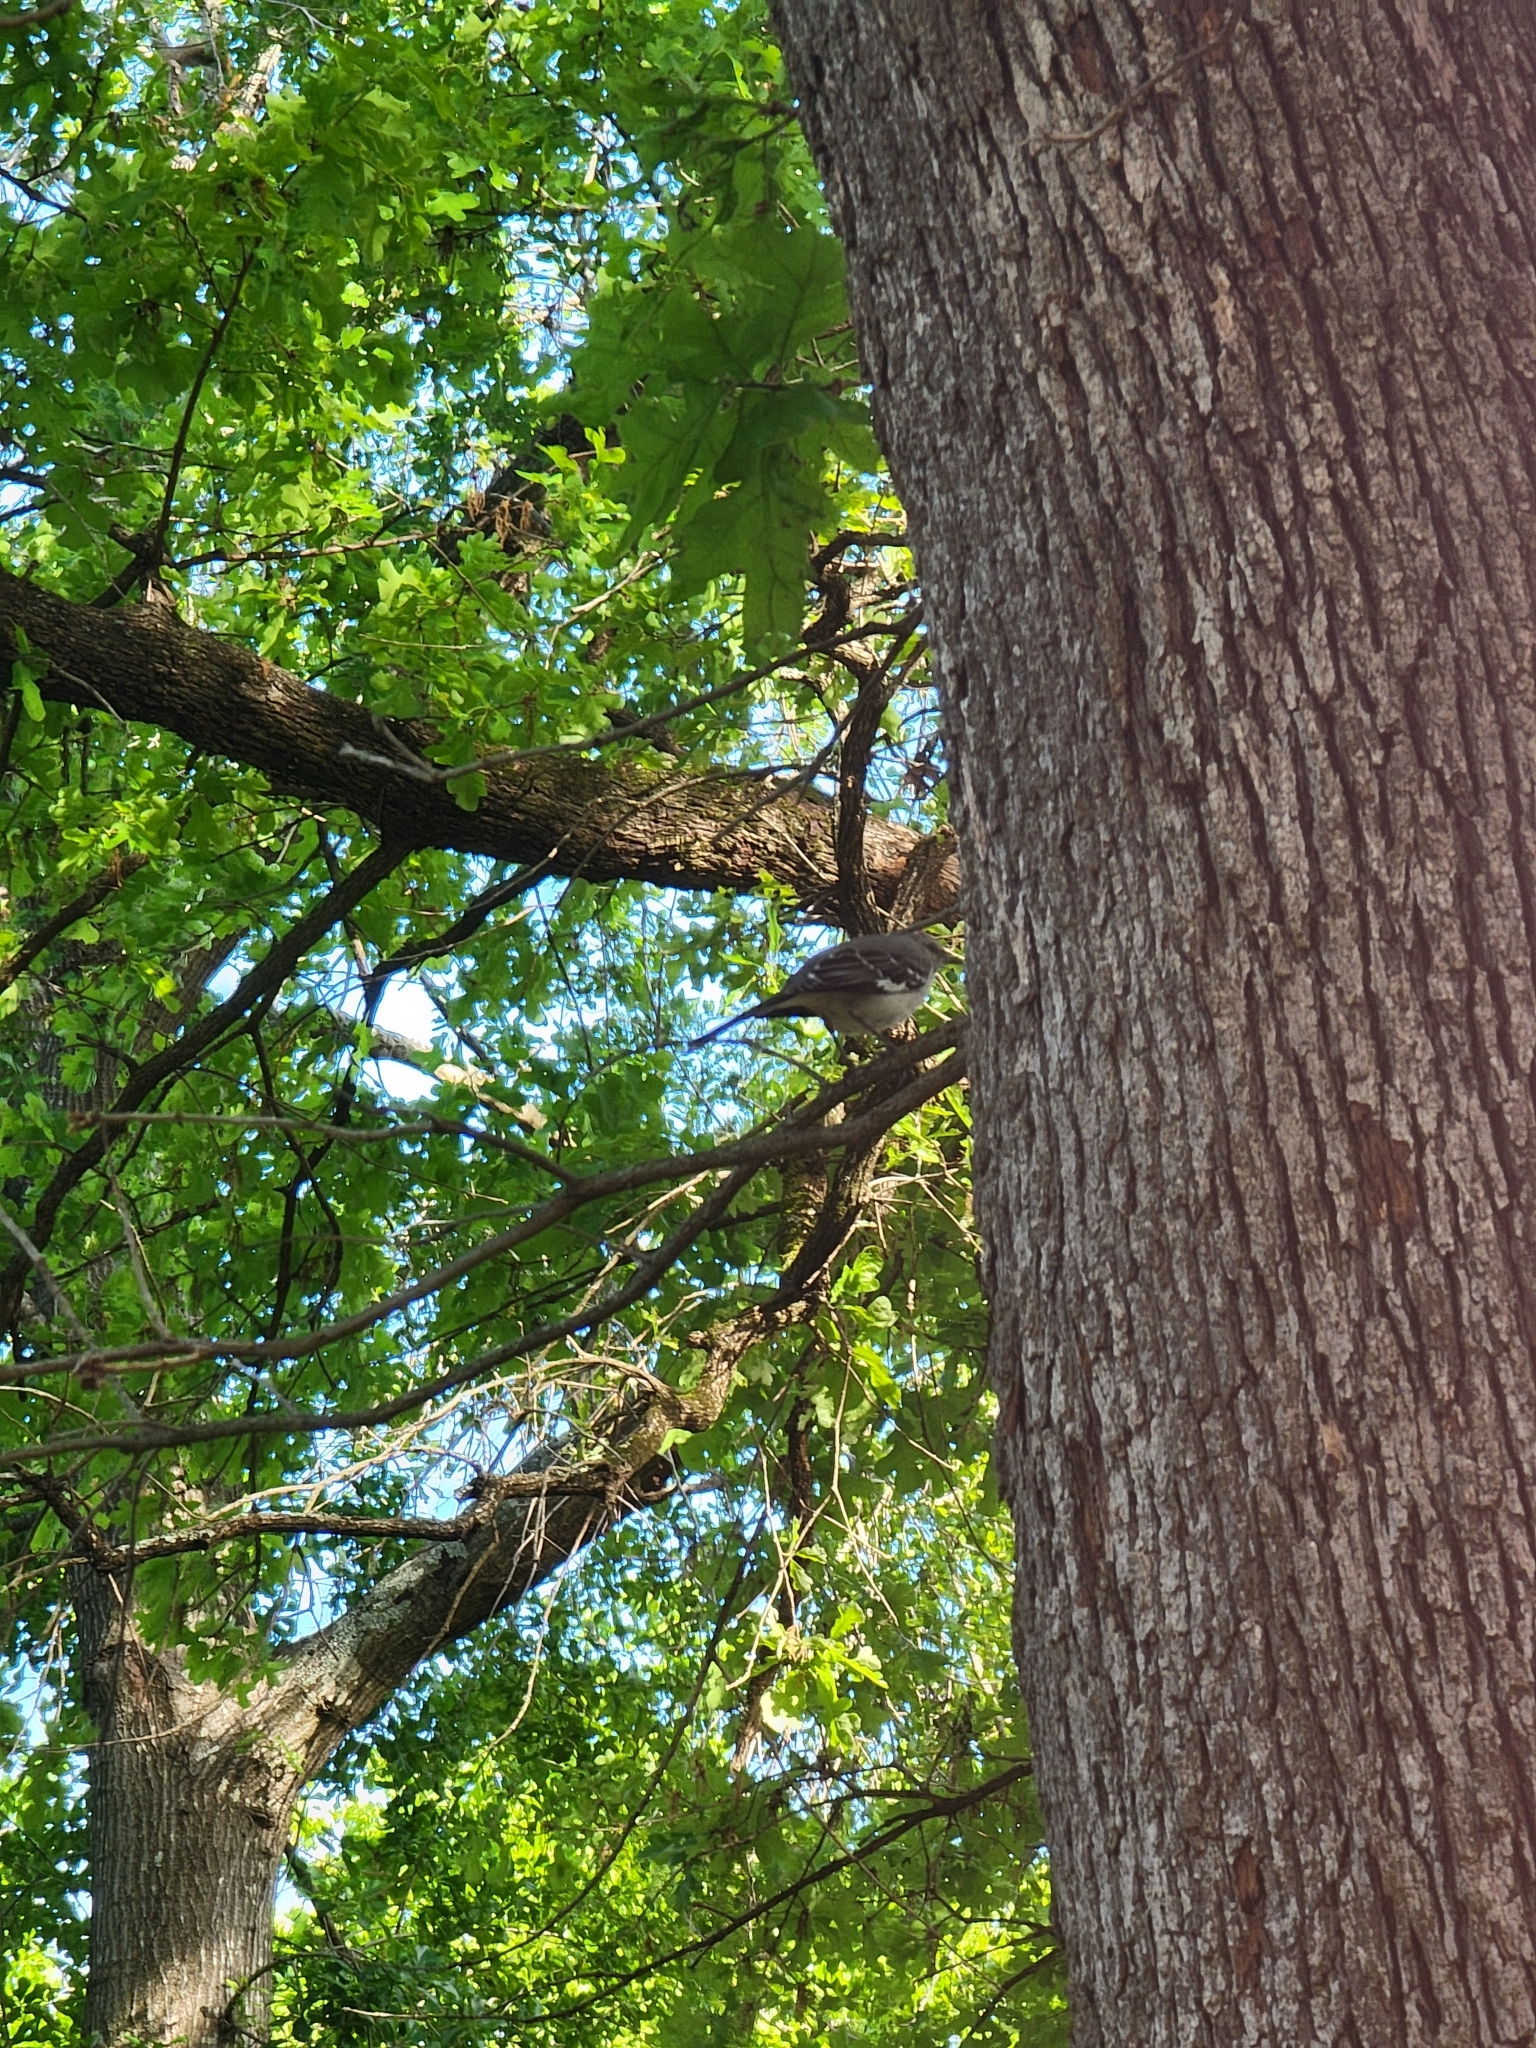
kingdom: Animalia
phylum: Chordata
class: Aves
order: Passeriformes
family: Mimidae
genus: Mimus
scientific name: Mimus polyglottos
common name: Northern mockingbird
